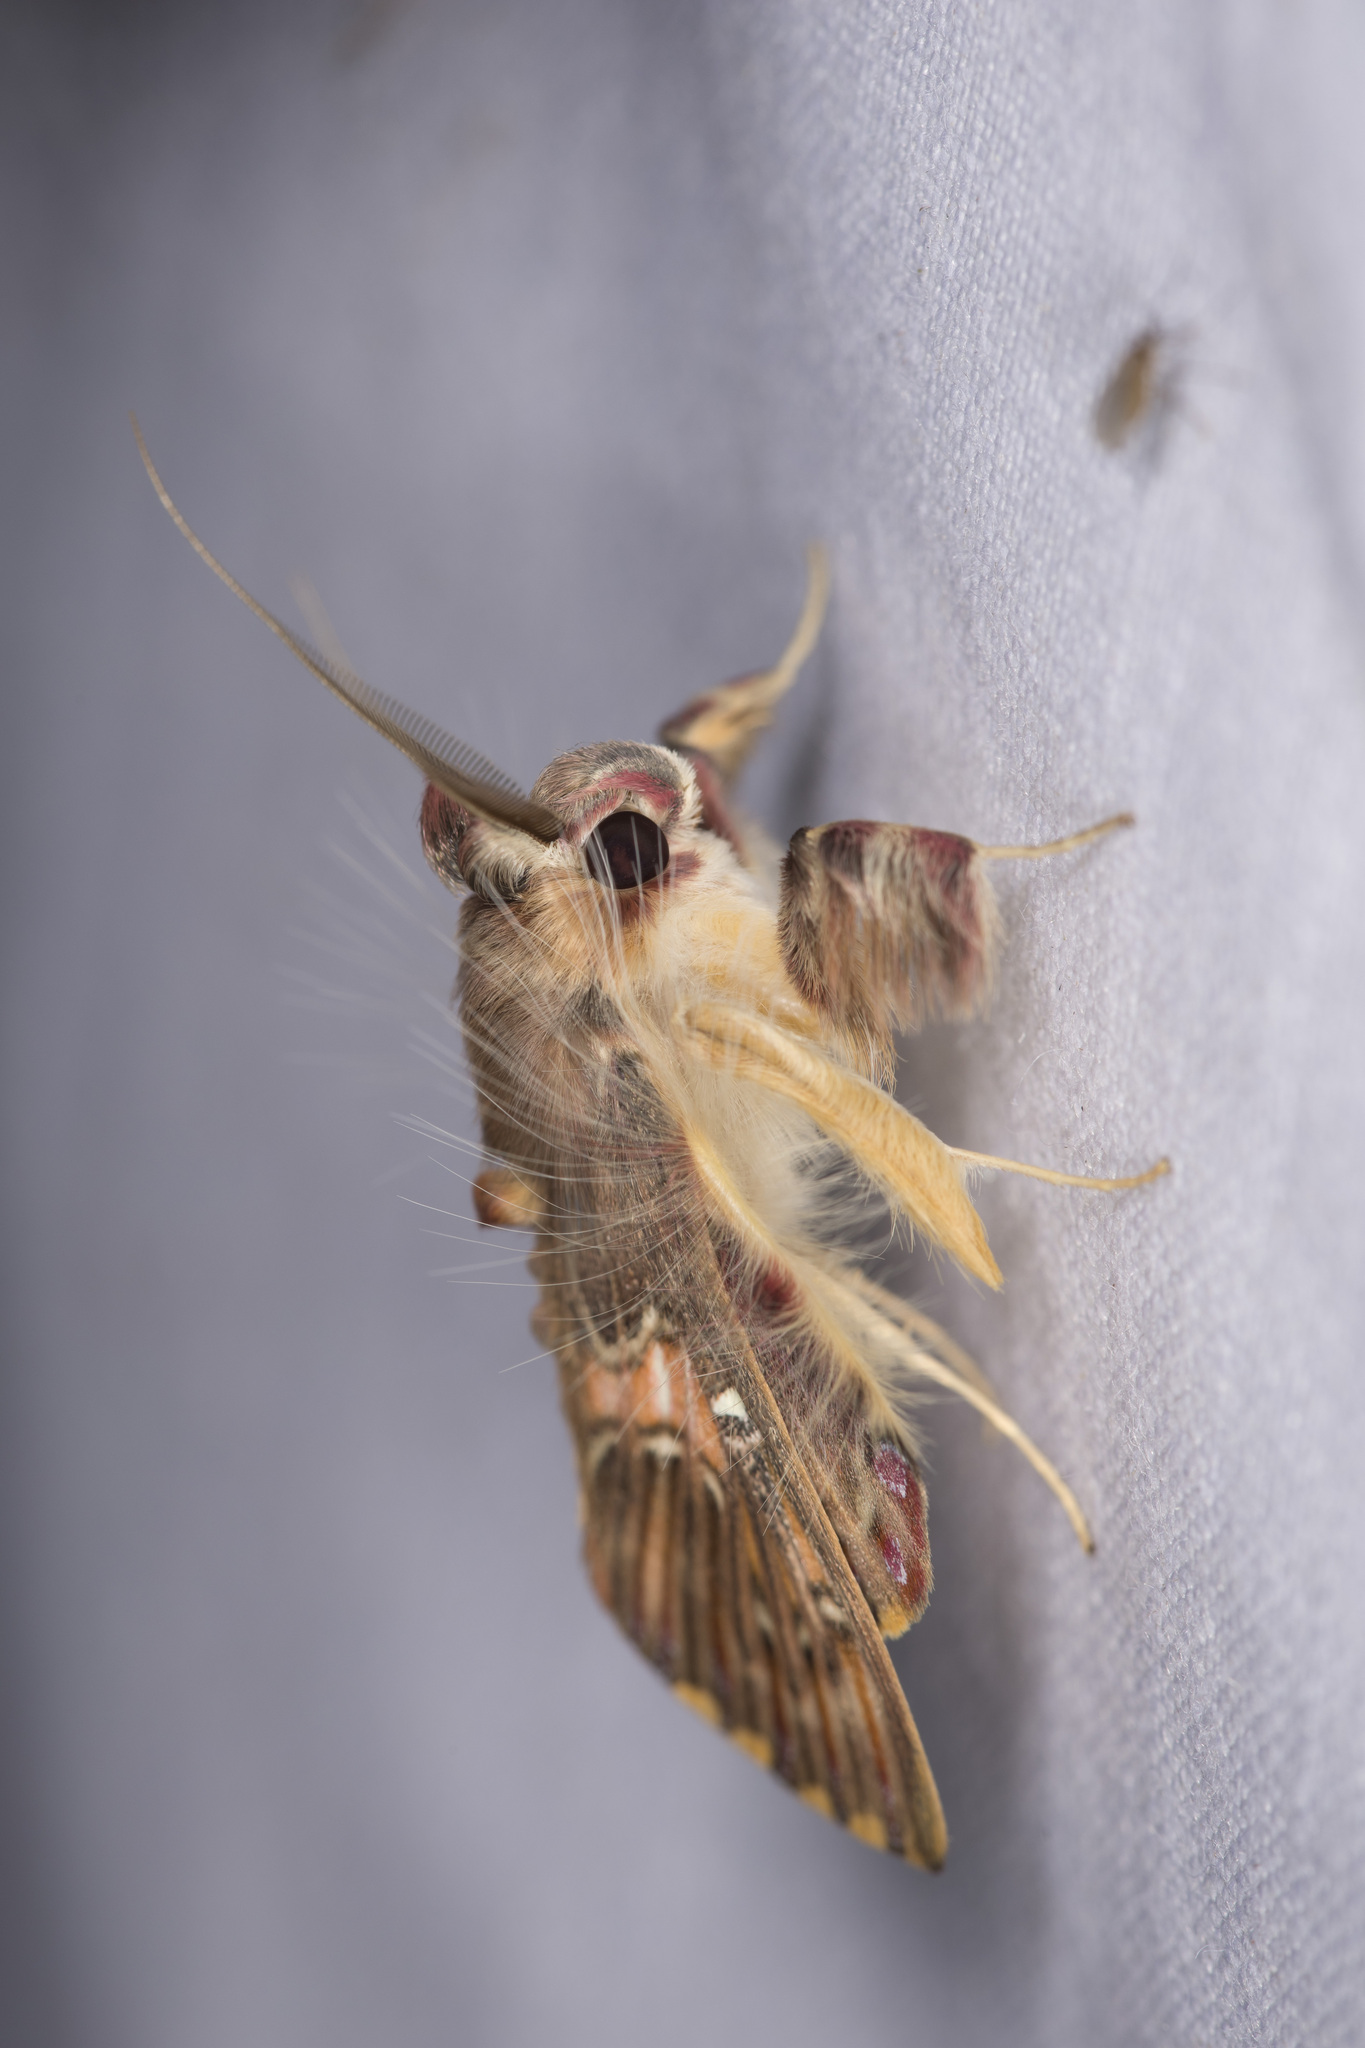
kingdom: Animalia
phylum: Arthropoda
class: Insecta
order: Lepidoptera
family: Erebidae
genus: Sosxetra
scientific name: Sosxetra grata
